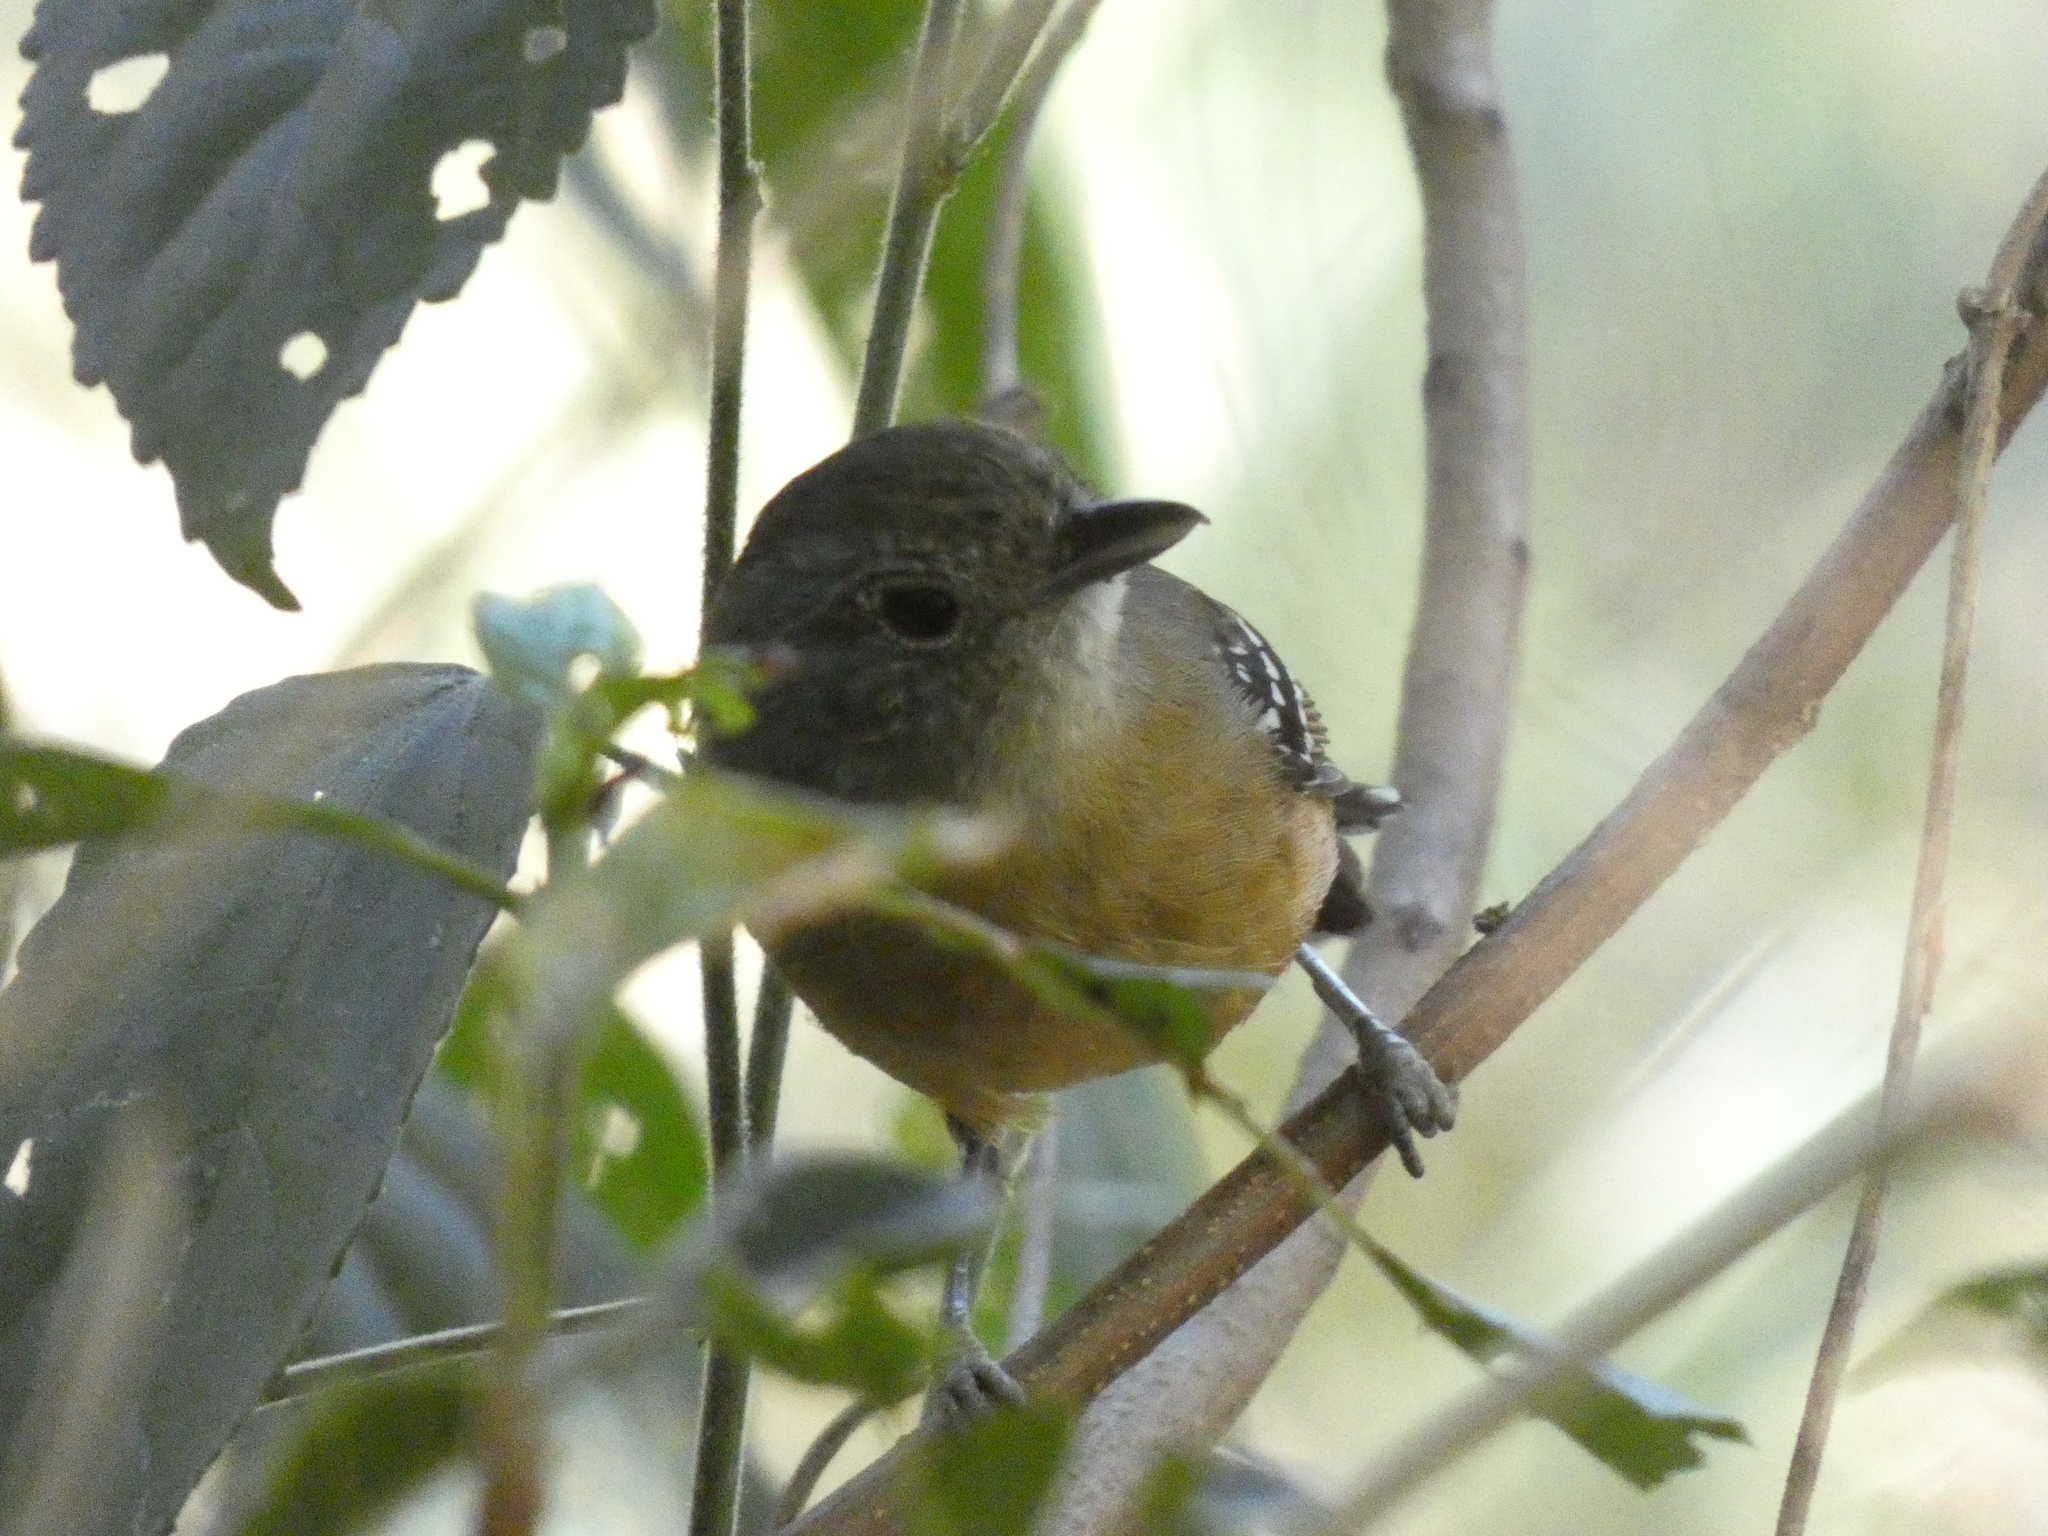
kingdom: Animalia
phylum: Chordata
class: Aves
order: Passeriformes
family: Thamnophilidae
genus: Thamnophilus
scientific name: Thamnophilus caerulescens
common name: Variable antshrike
